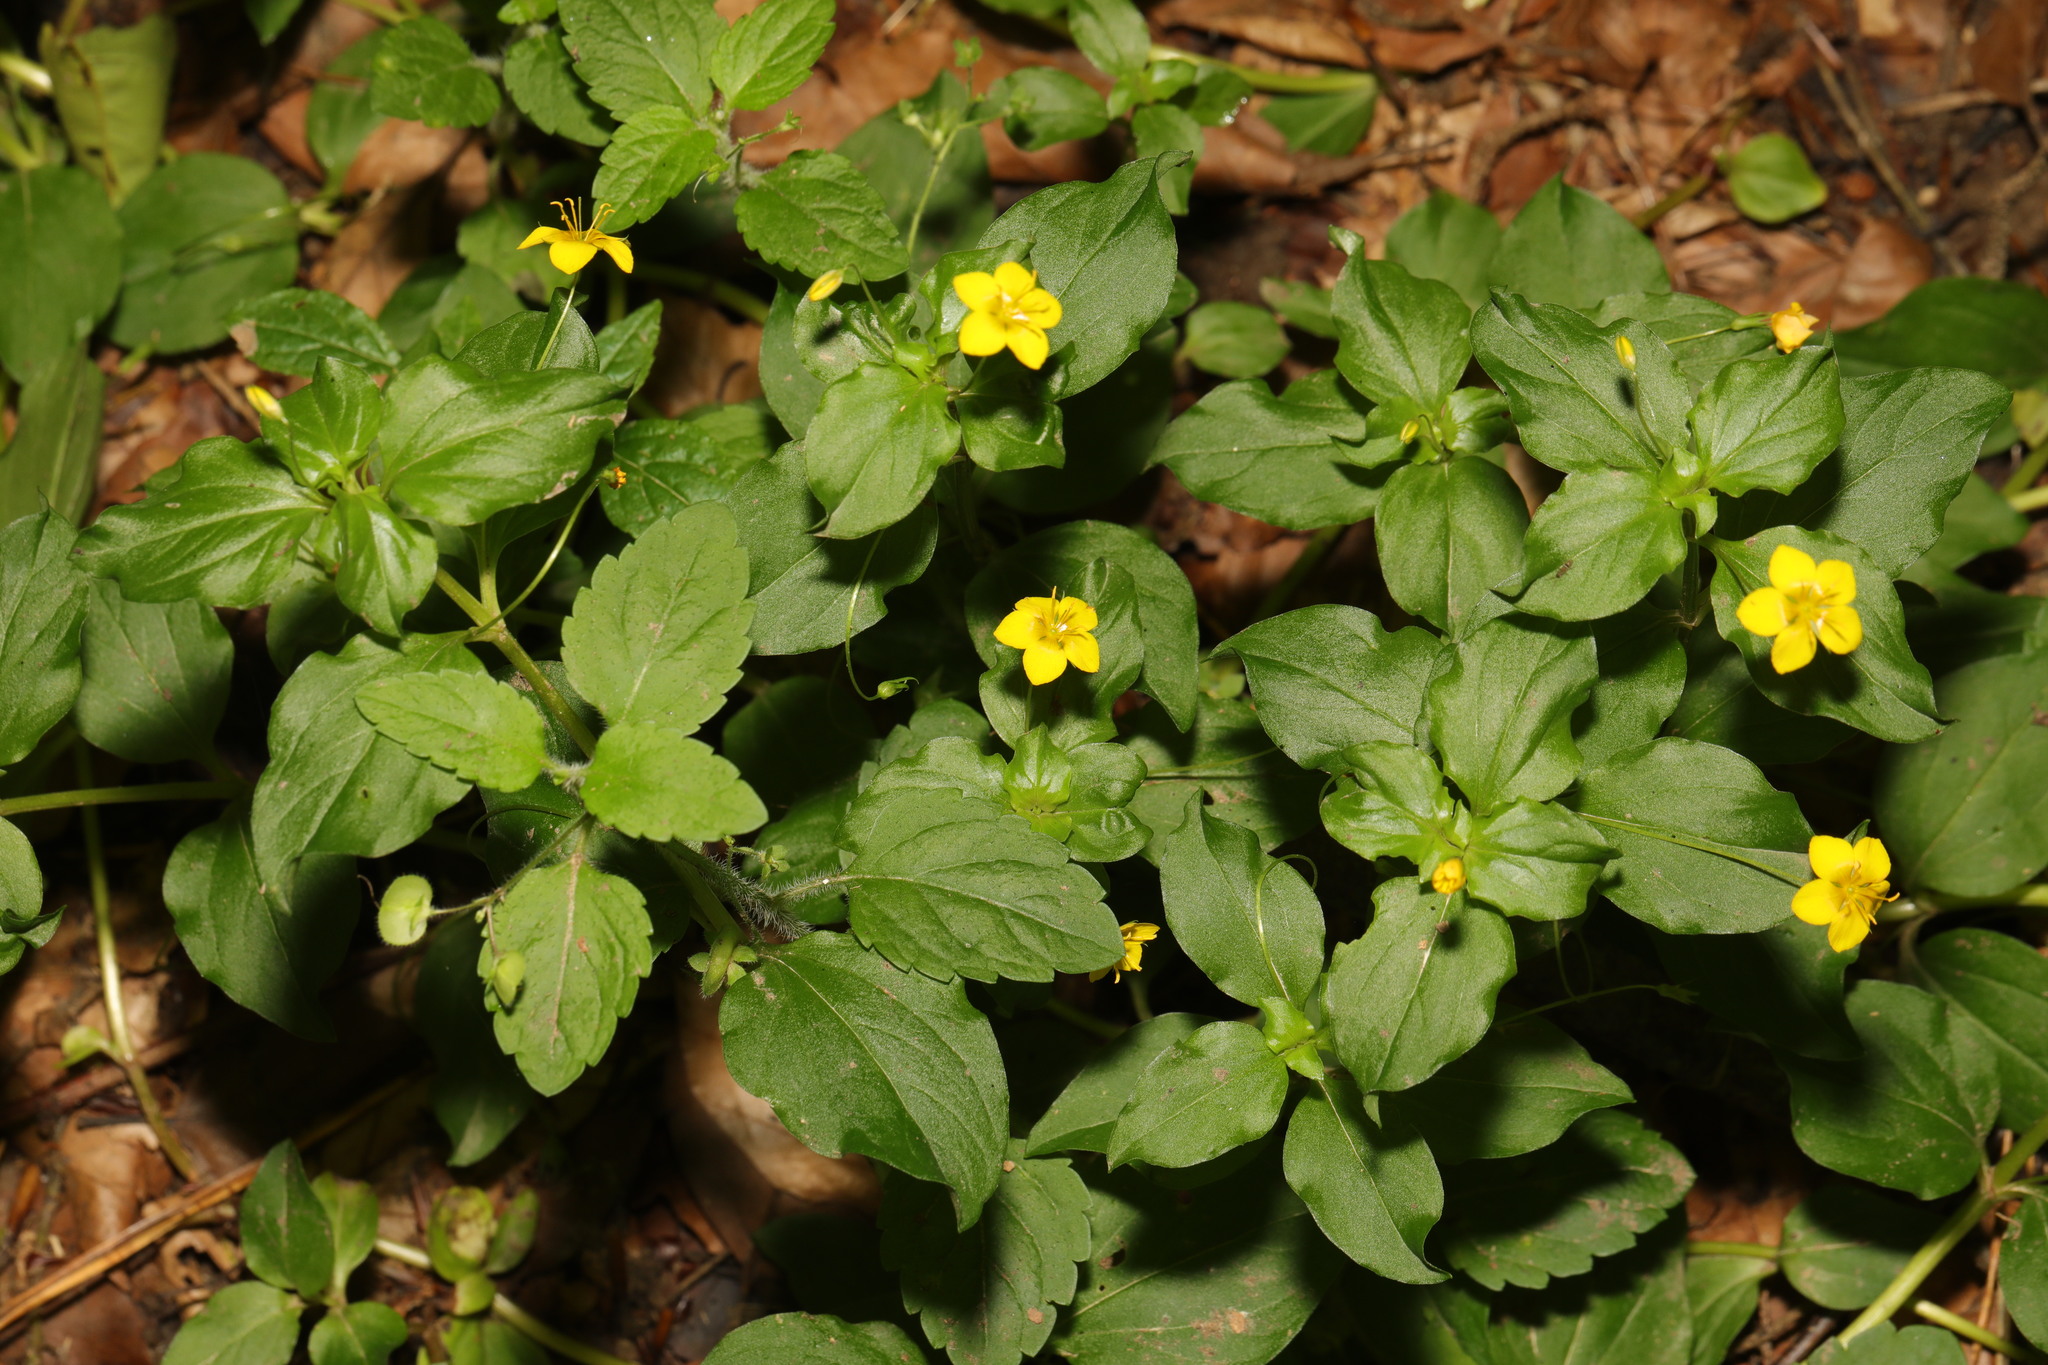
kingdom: Plantae
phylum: Tracheophyta
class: Magnoliopsida
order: Ericales
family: Primulaceae
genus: Lysimachia
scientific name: Lysimachia nemorum
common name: Yellow pimpernel
